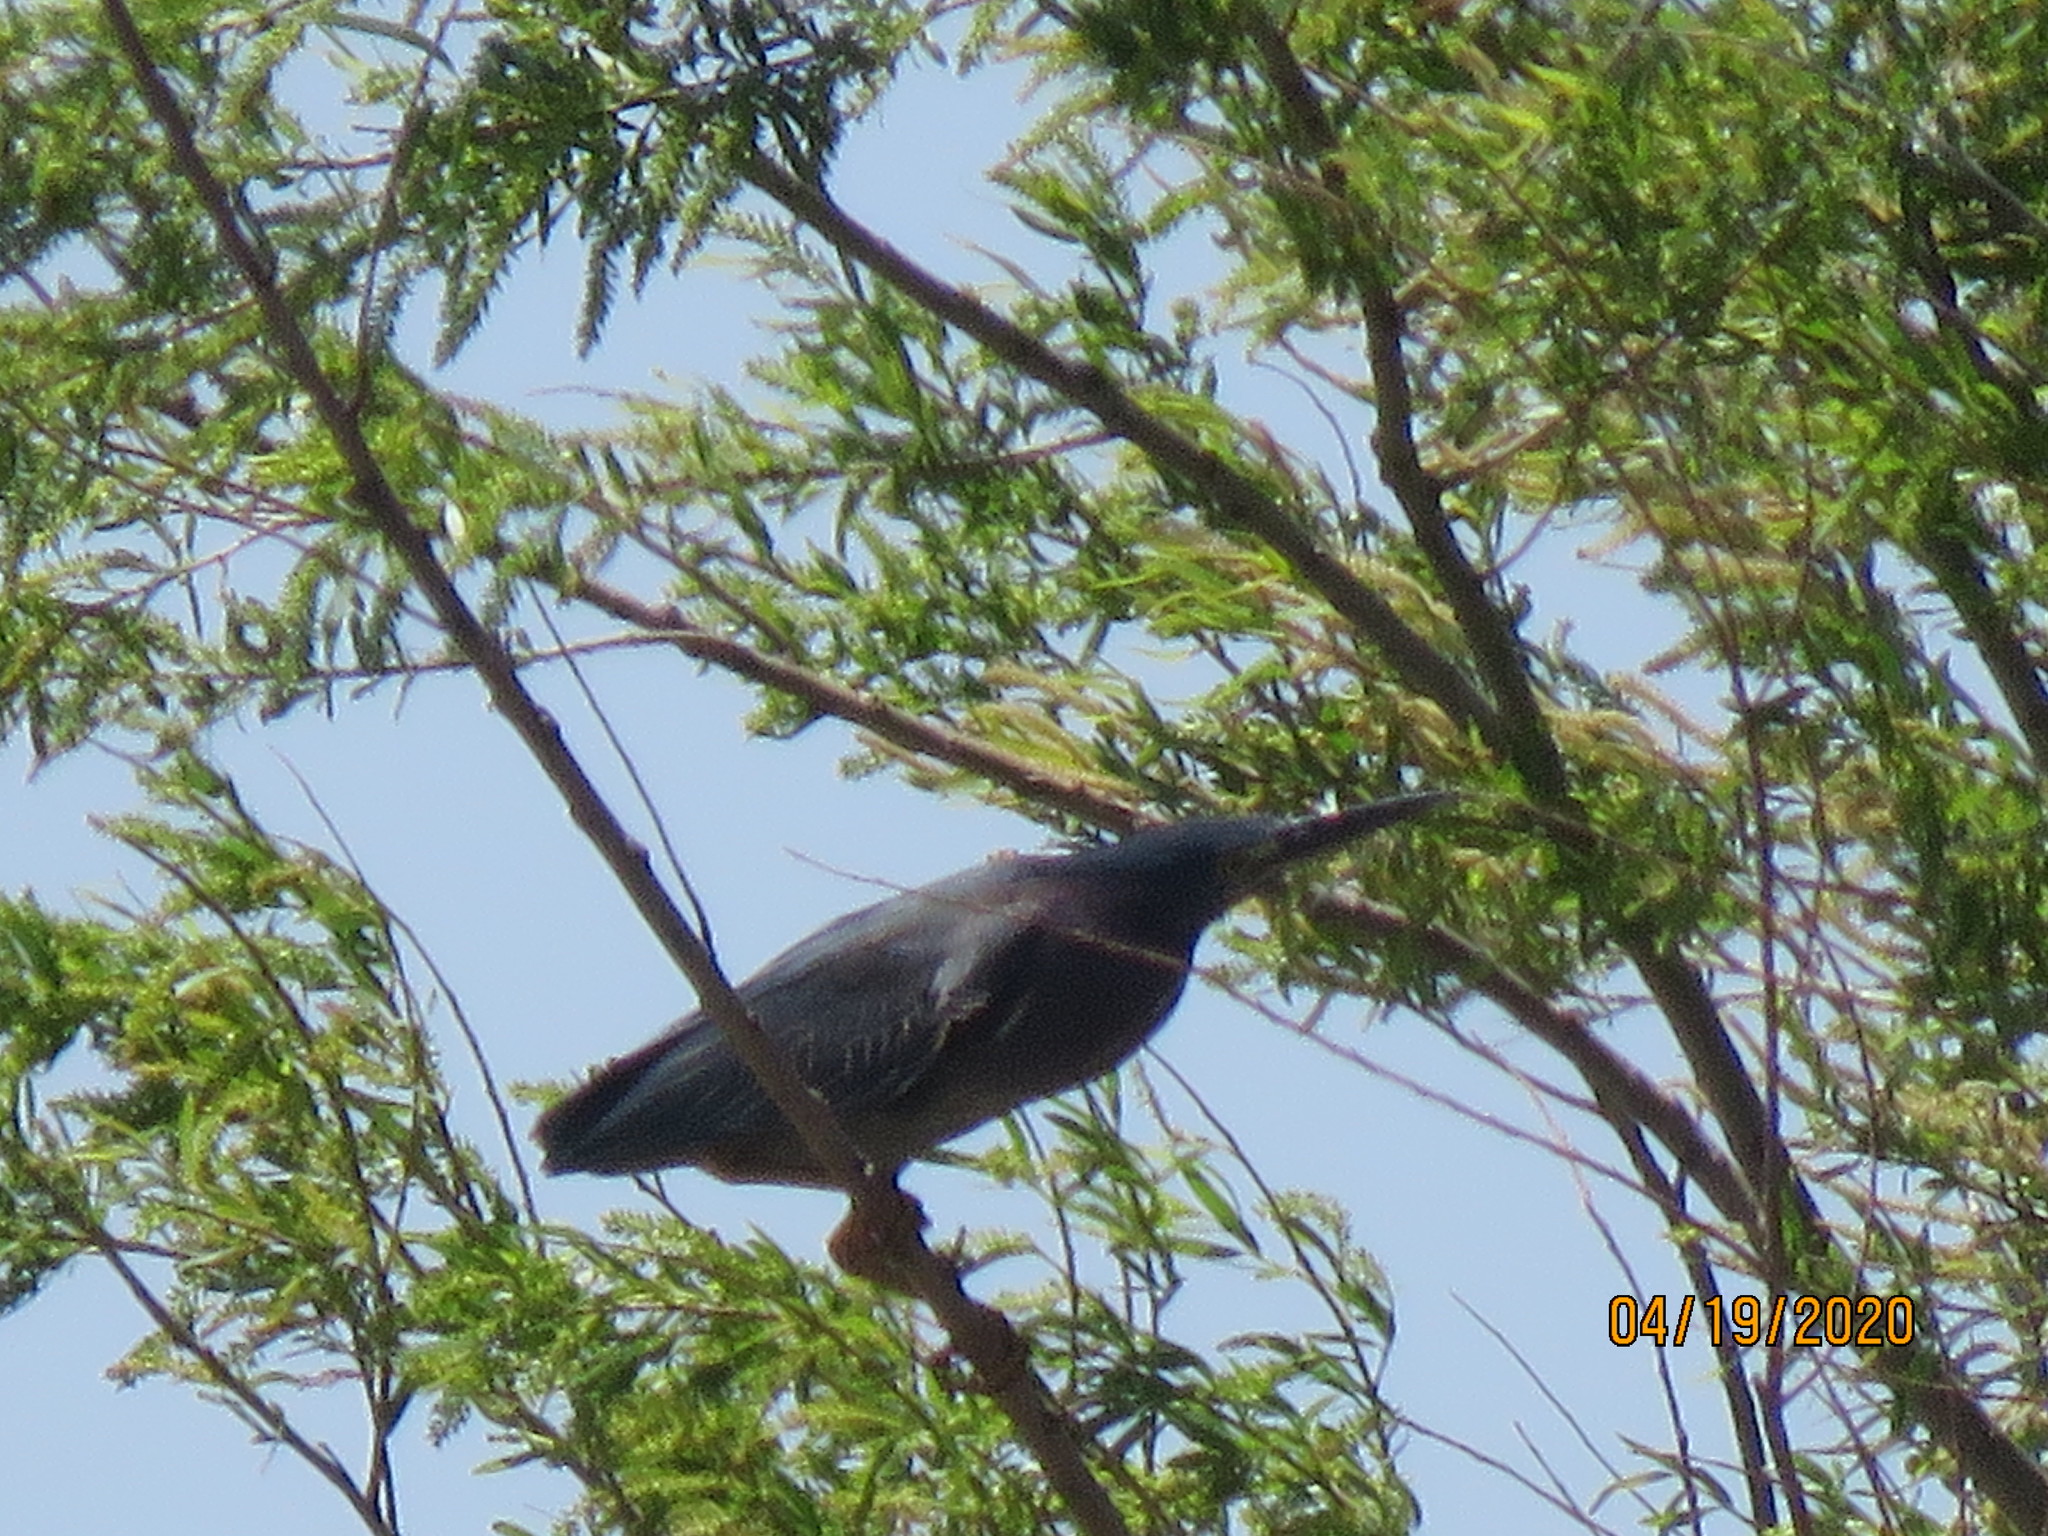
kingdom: Animalia
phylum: Chordata
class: Aves
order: Pelecaniformes
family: Ardeidae
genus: Butorides
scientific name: Butorides virescens
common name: Green heron
